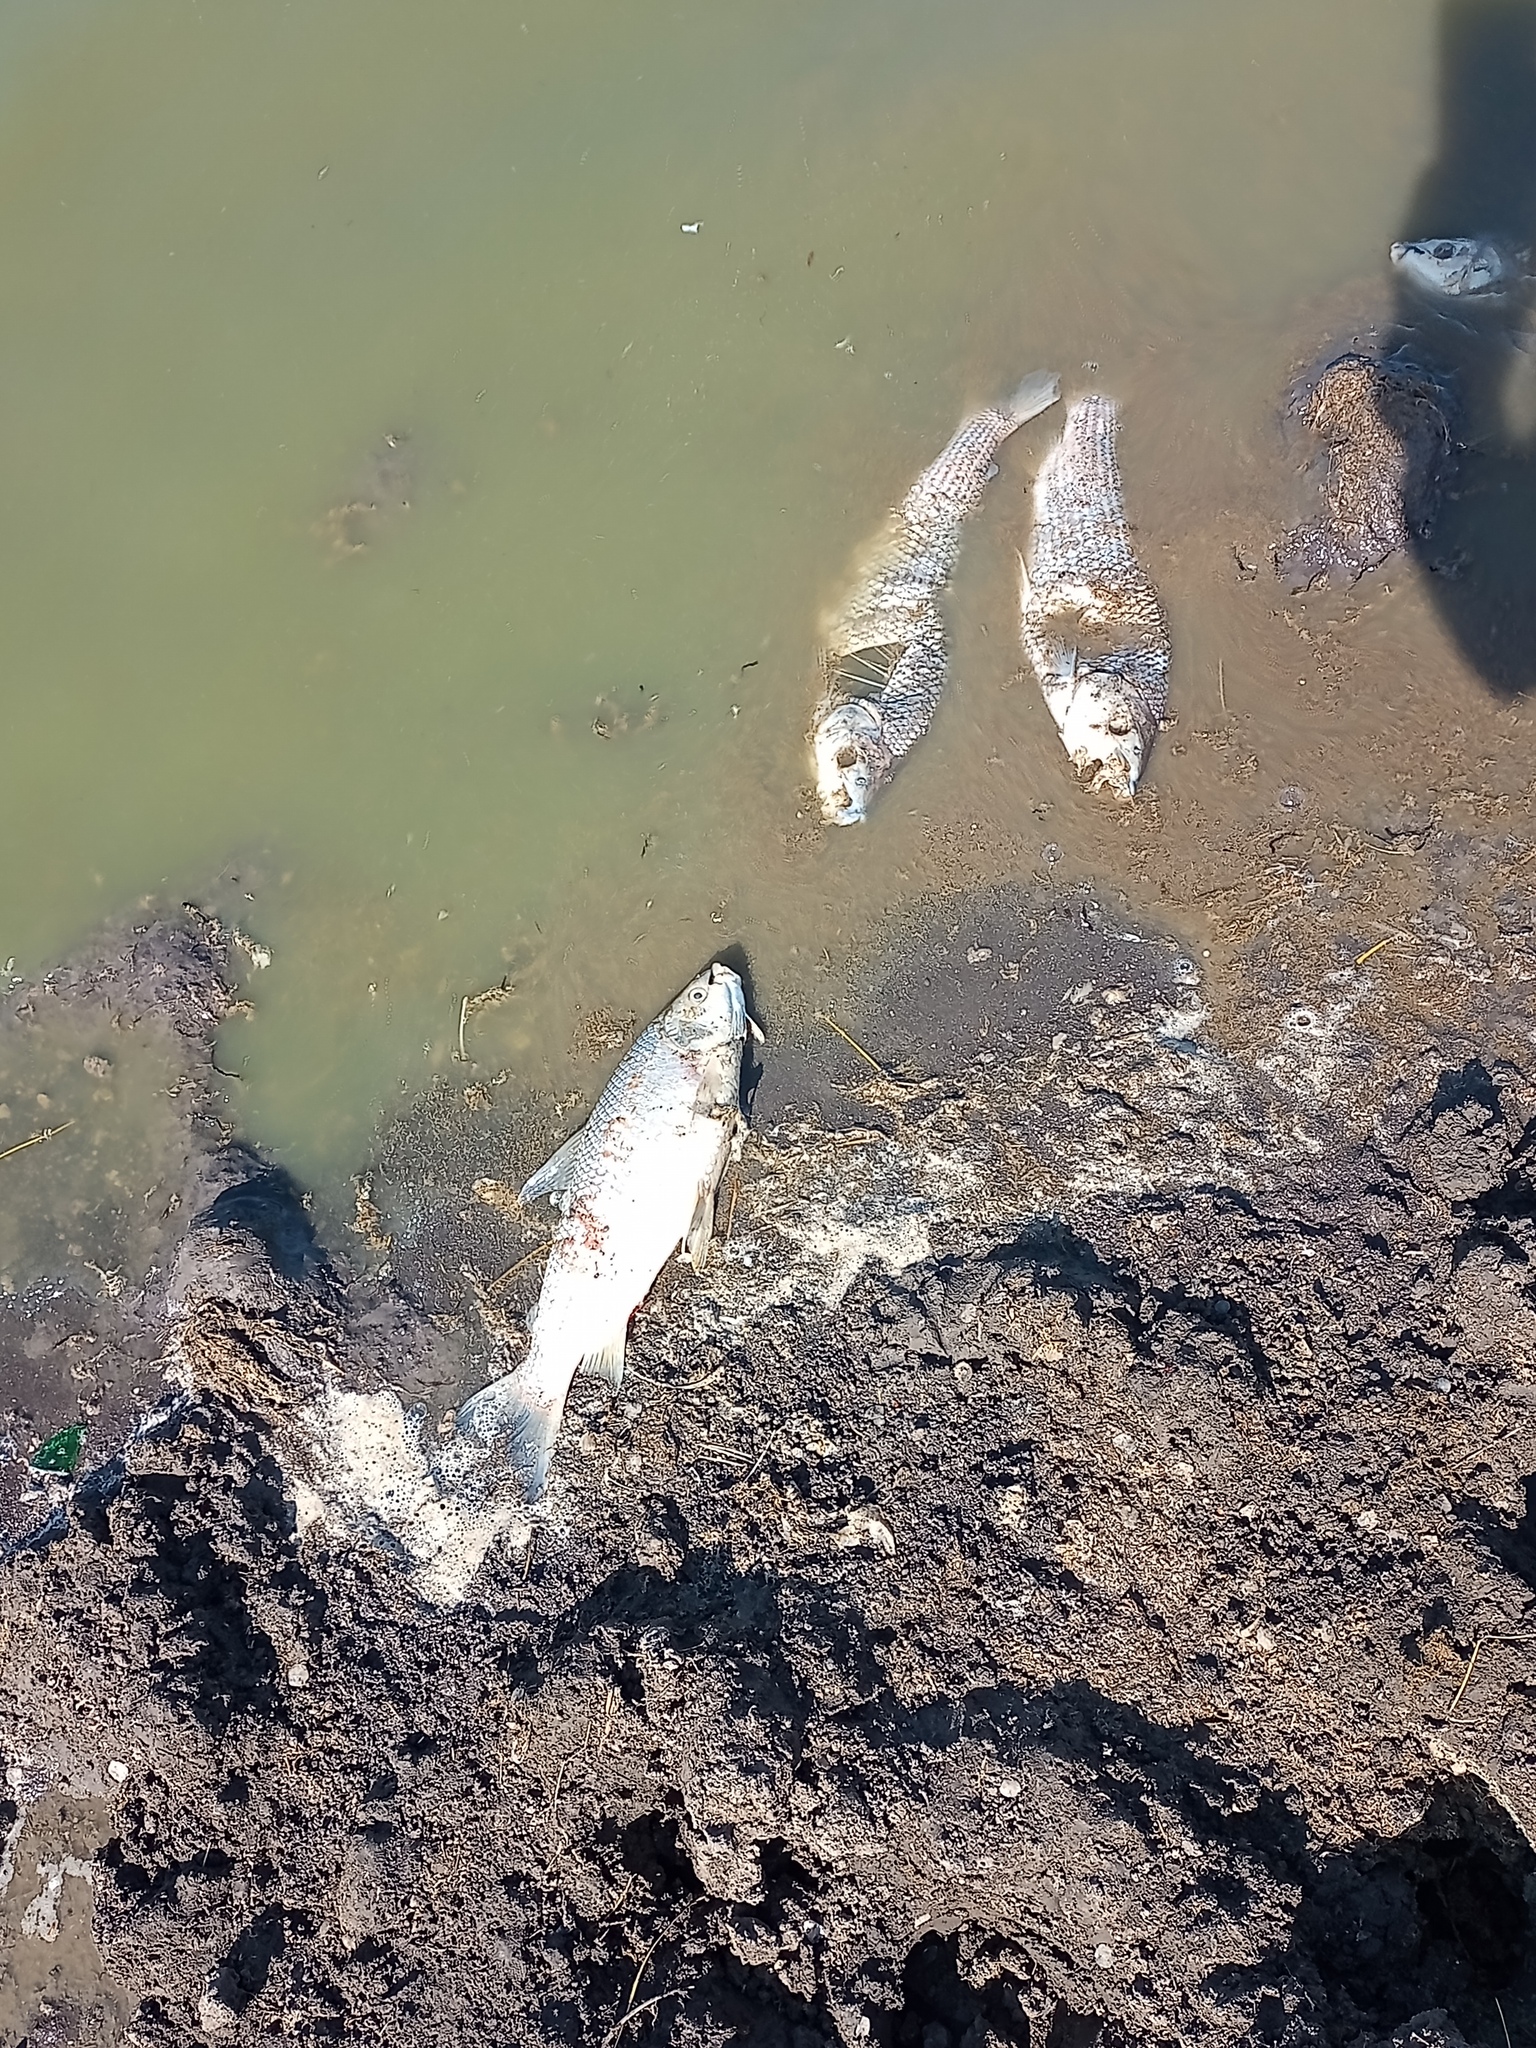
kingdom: Animalia
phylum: Chordata
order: Characiformes
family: Prochilodontidae
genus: Prochilodus
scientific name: Prochilodus lineatus
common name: Curimbata
